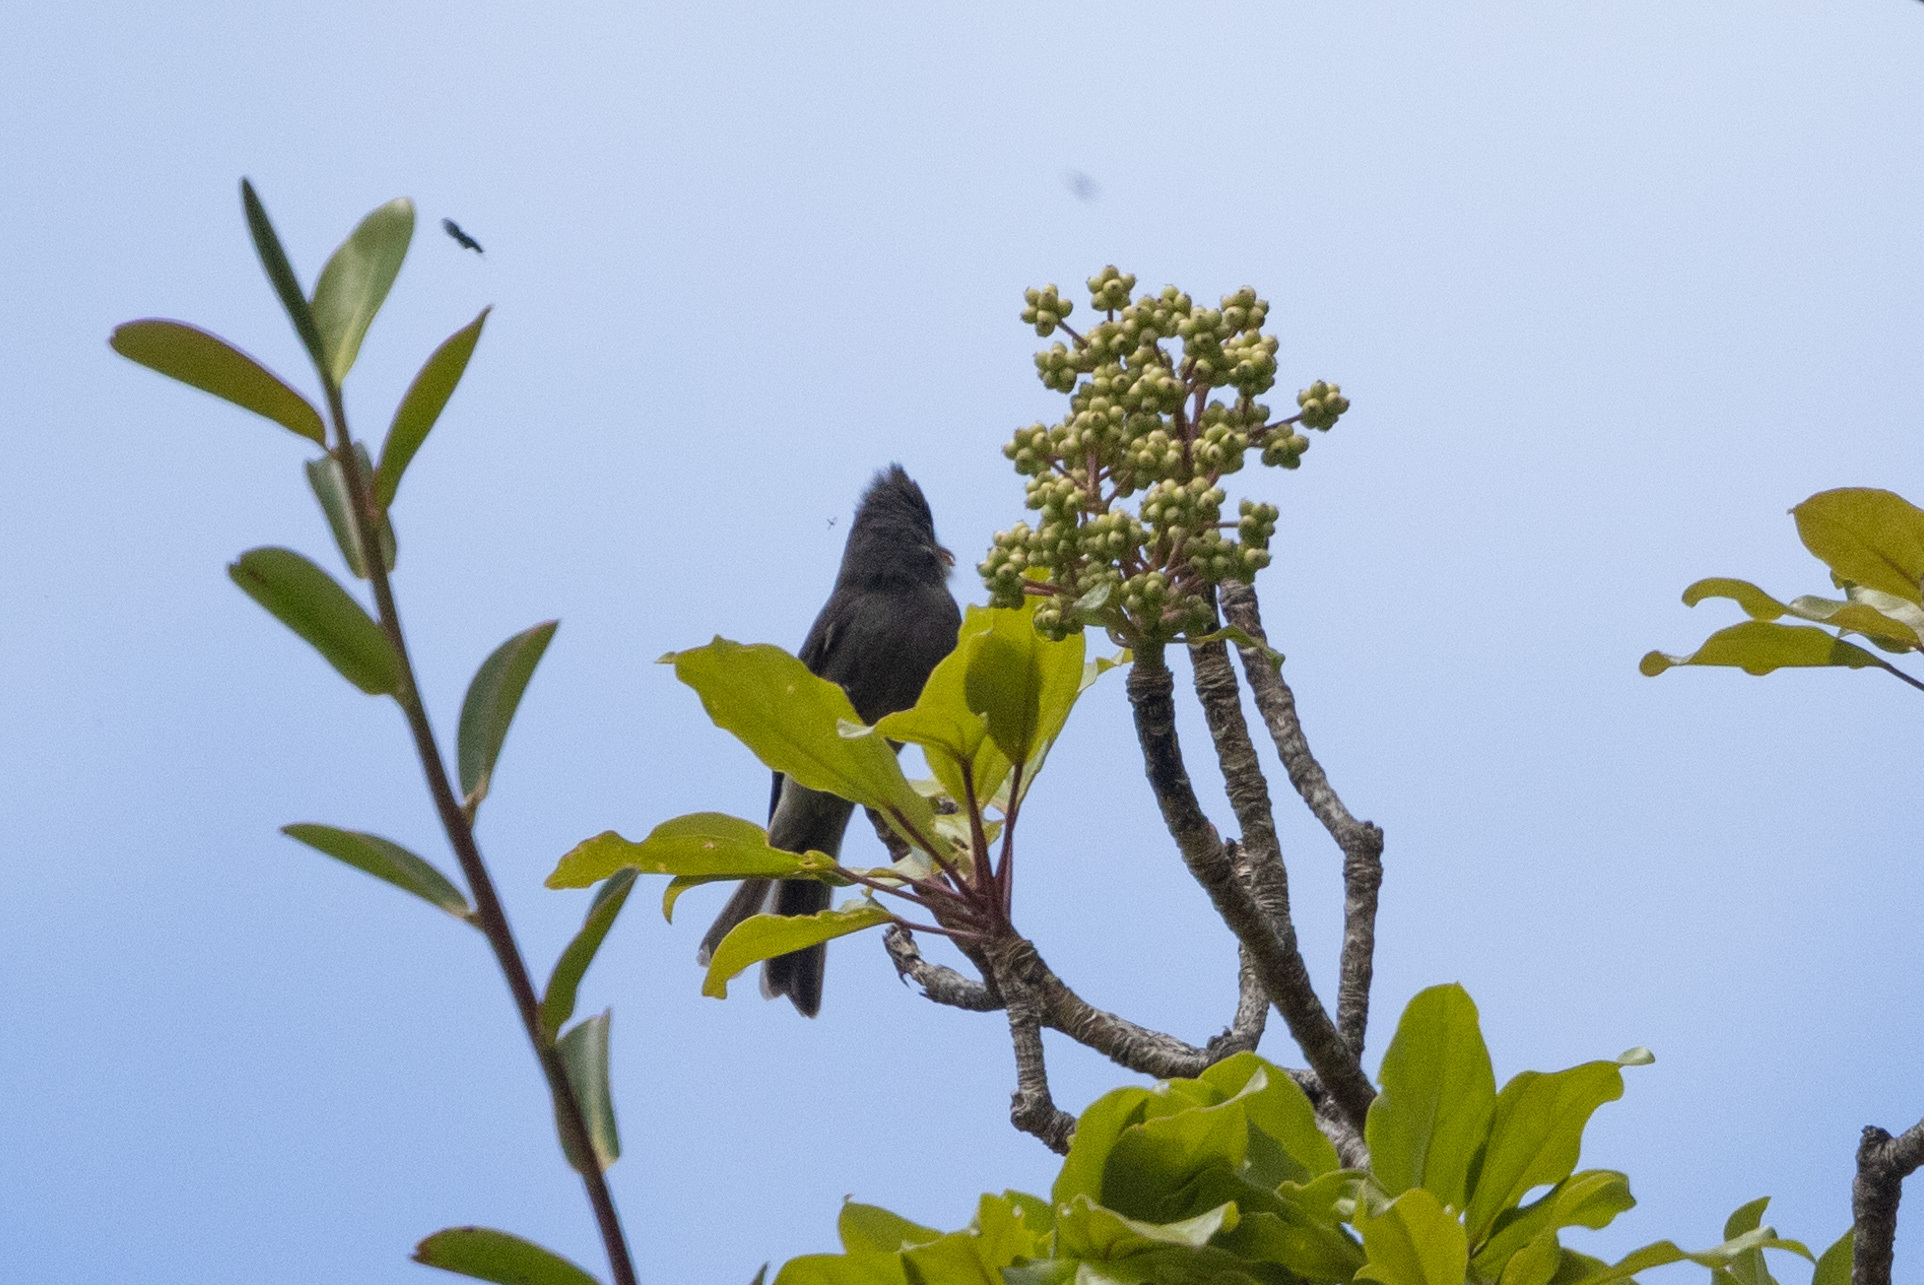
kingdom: Animalia
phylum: Chordata
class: Aves
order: Passeriformes
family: Tyrannidae
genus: Contopus
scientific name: Contopus lugubris
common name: Dark pewee
